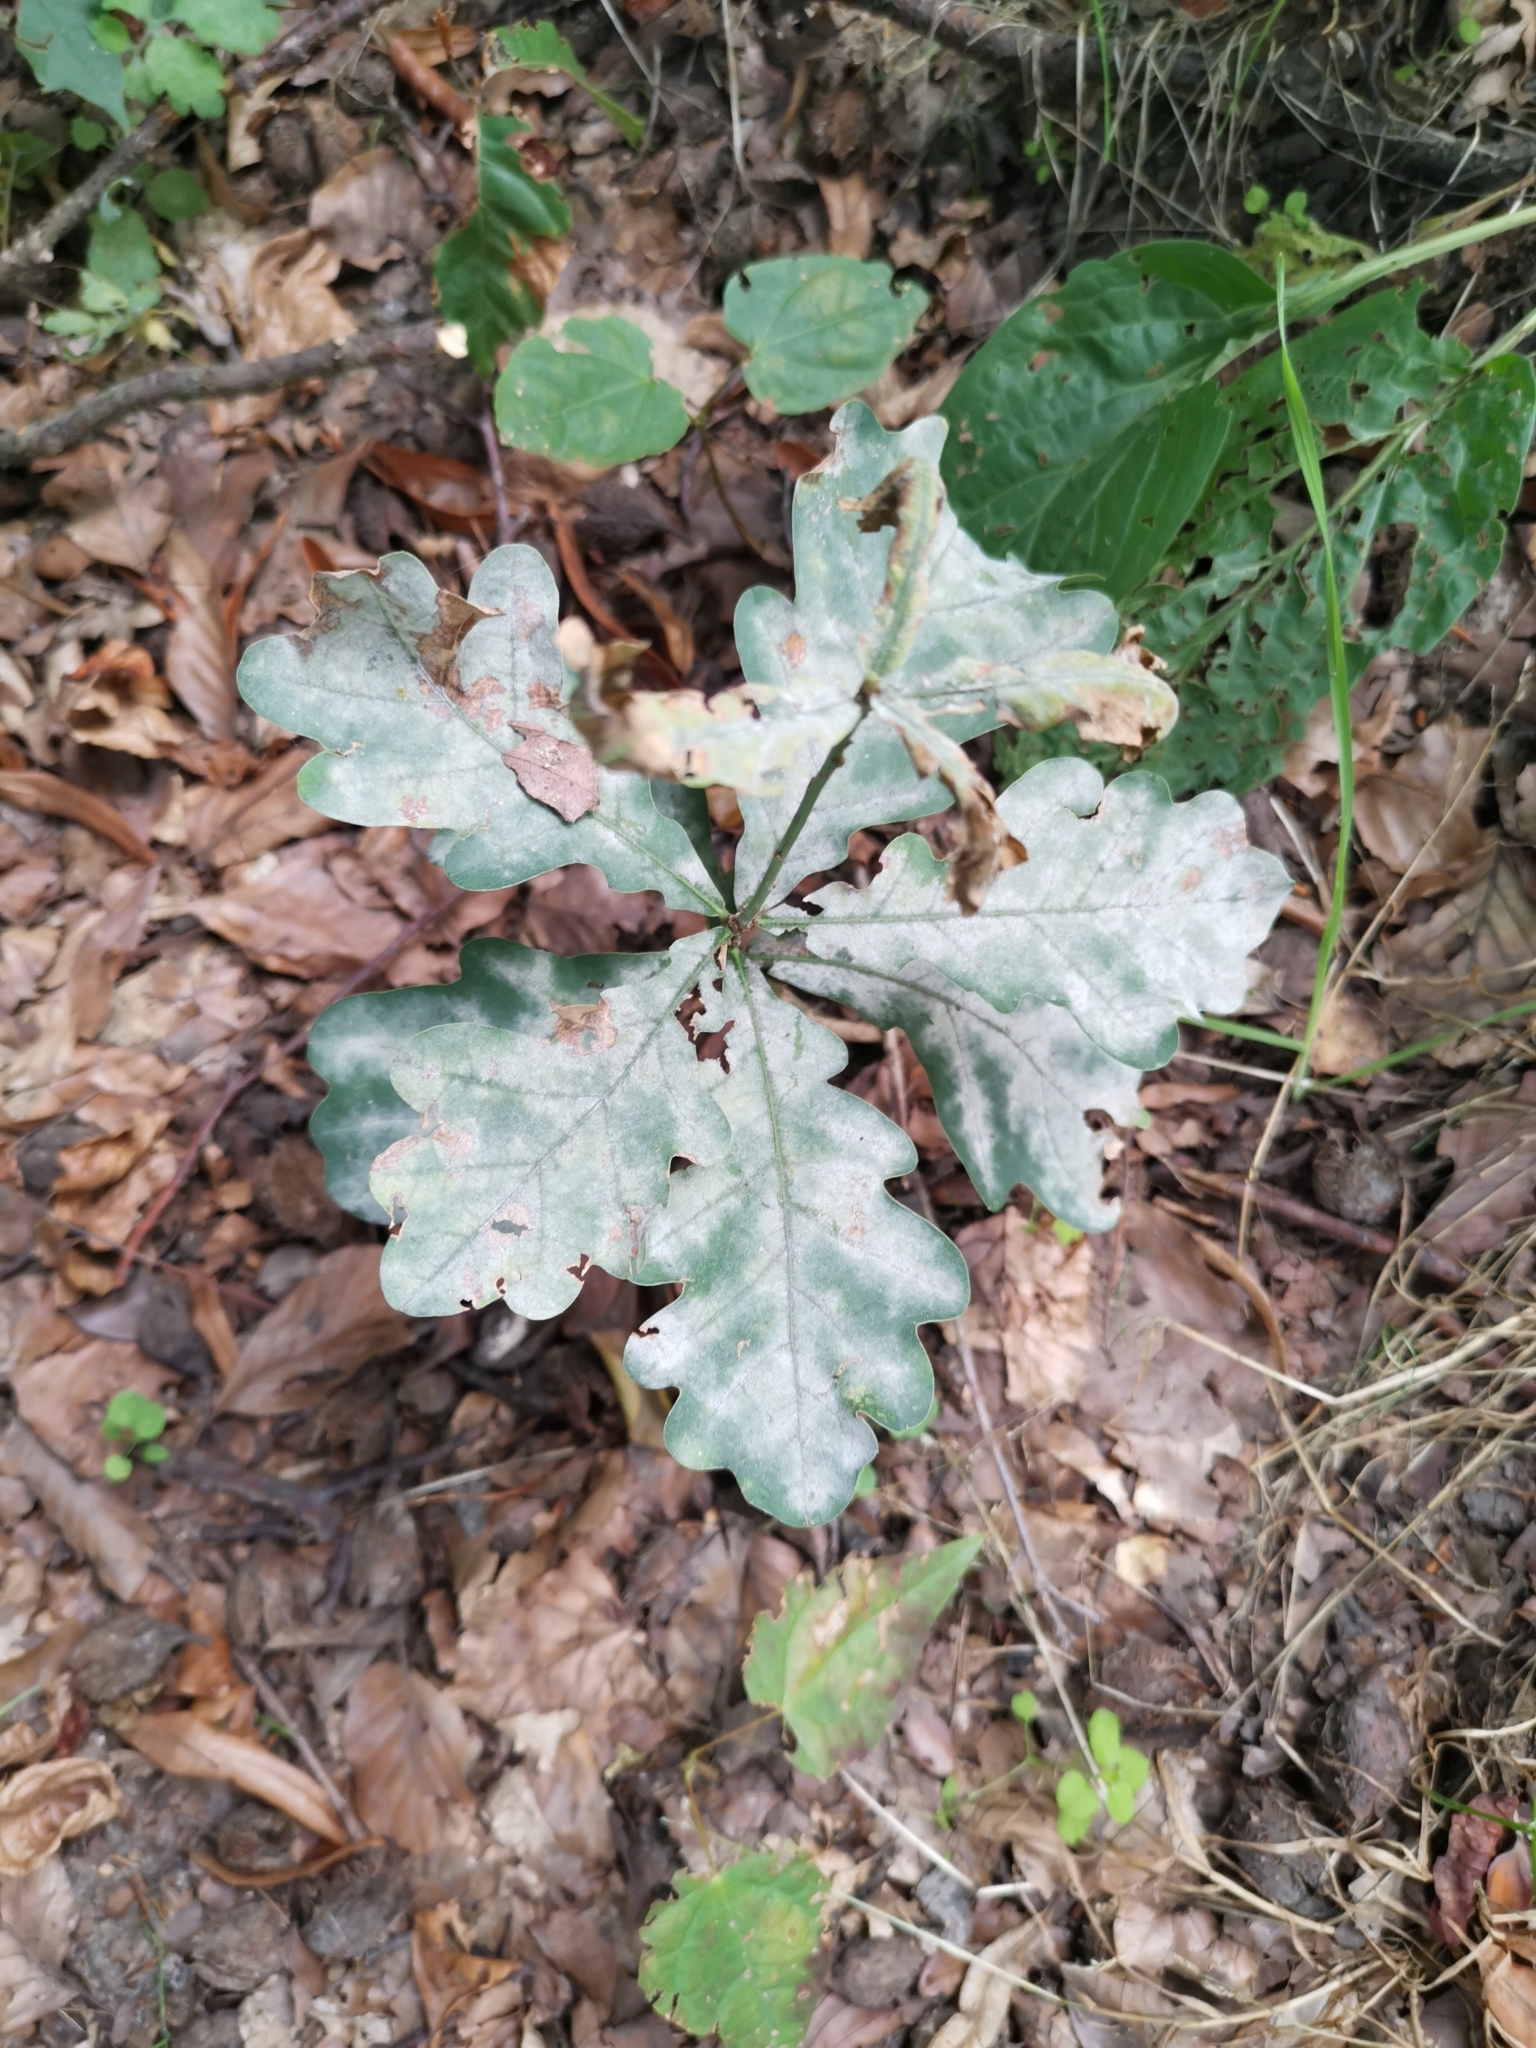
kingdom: Plantae
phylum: Tracheophyta
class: Magnoliopsida
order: Fagales
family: Fagaceae
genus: Quercus
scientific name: Quercus robur
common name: Pedunculate oak
